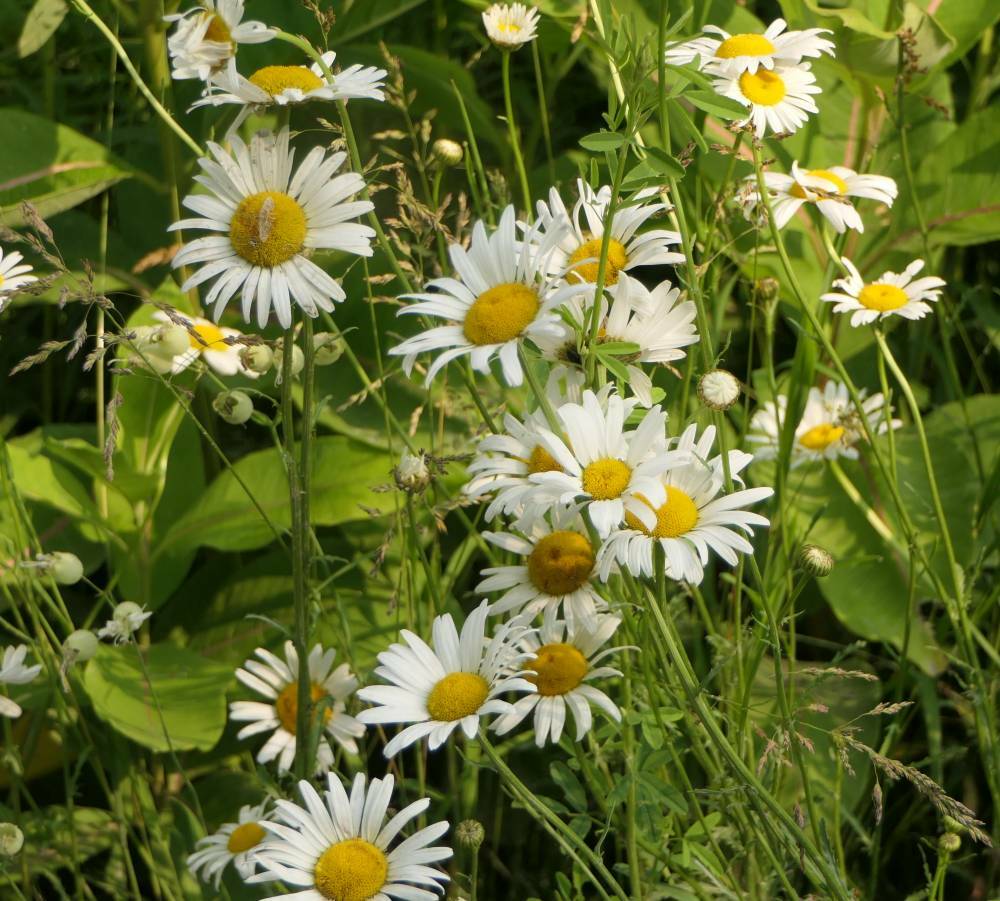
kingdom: Plantae
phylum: Tracheophyta
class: Magnoliopsida
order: Asterales
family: Asteraceae
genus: Leucanthemum
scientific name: Leucanthemum vulgare
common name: Oxeye daisy
